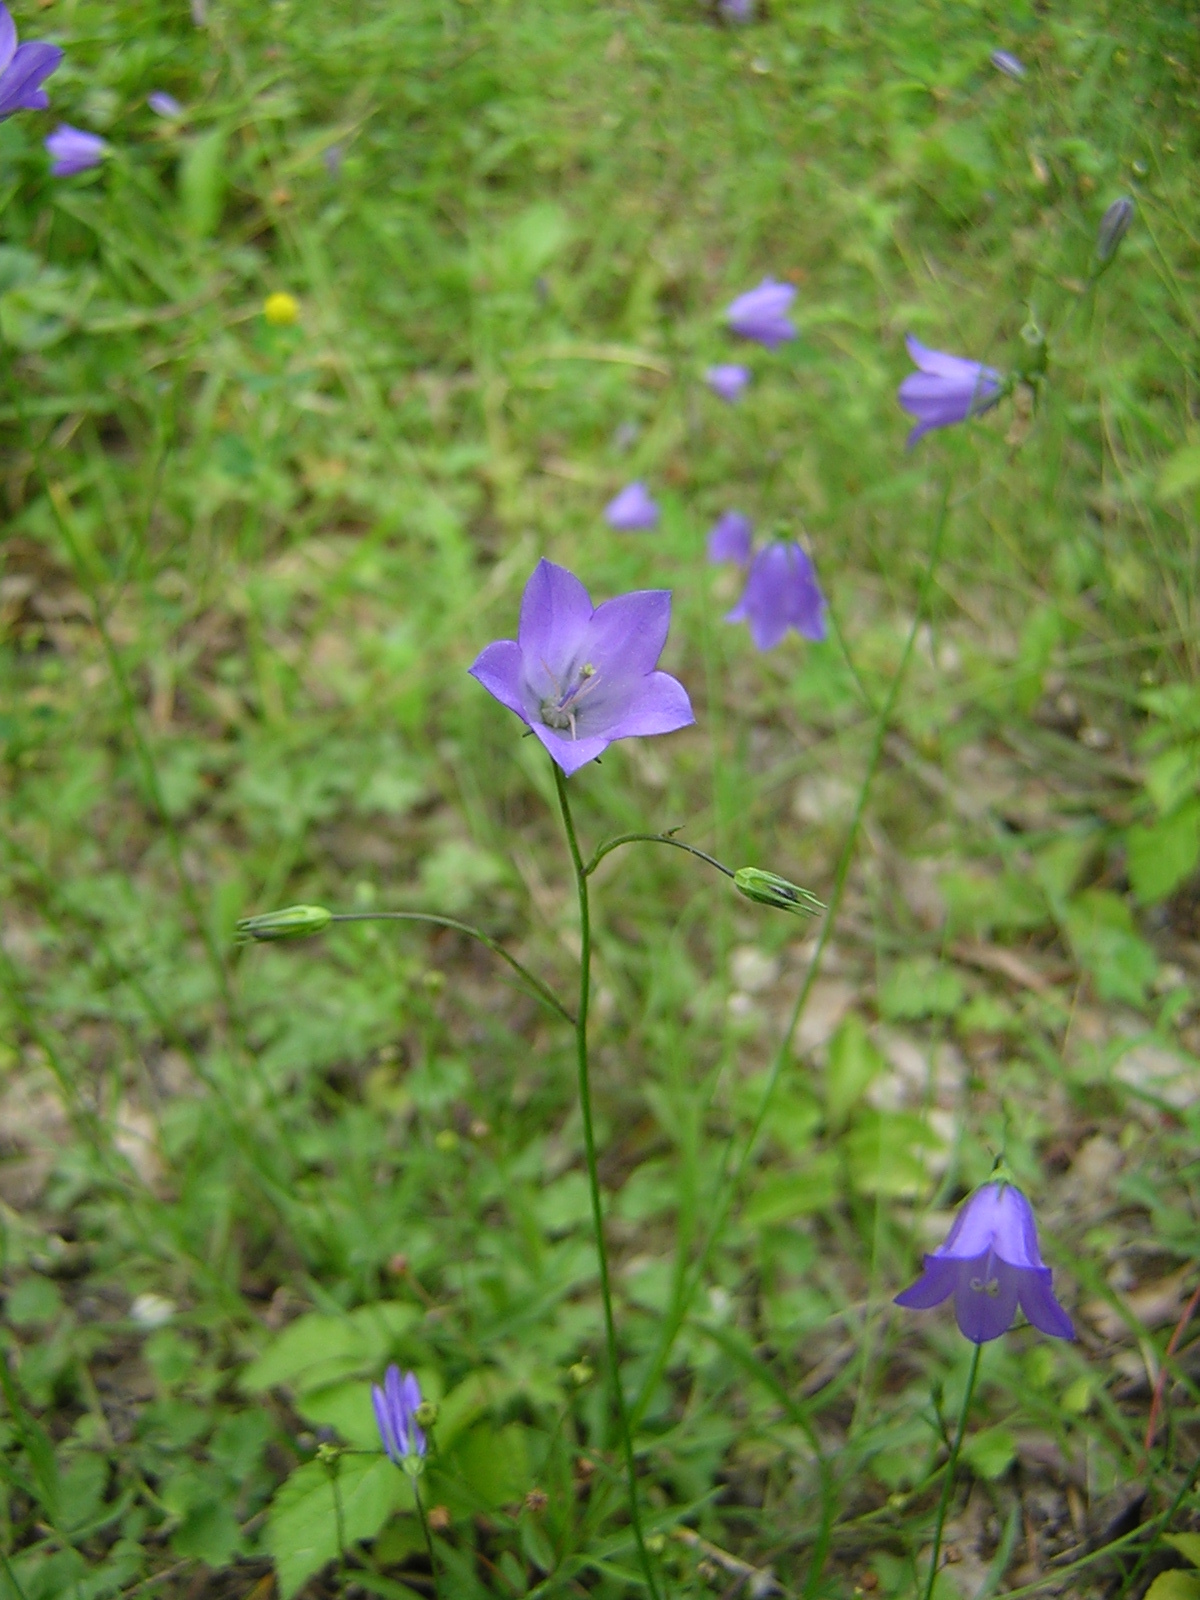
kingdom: Plantae
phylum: Tracheophyta
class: Magnoliopsida
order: Asterales
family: Campanulaceae
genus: Campanula
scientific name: Campanula rotundifolia
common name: Harebell
